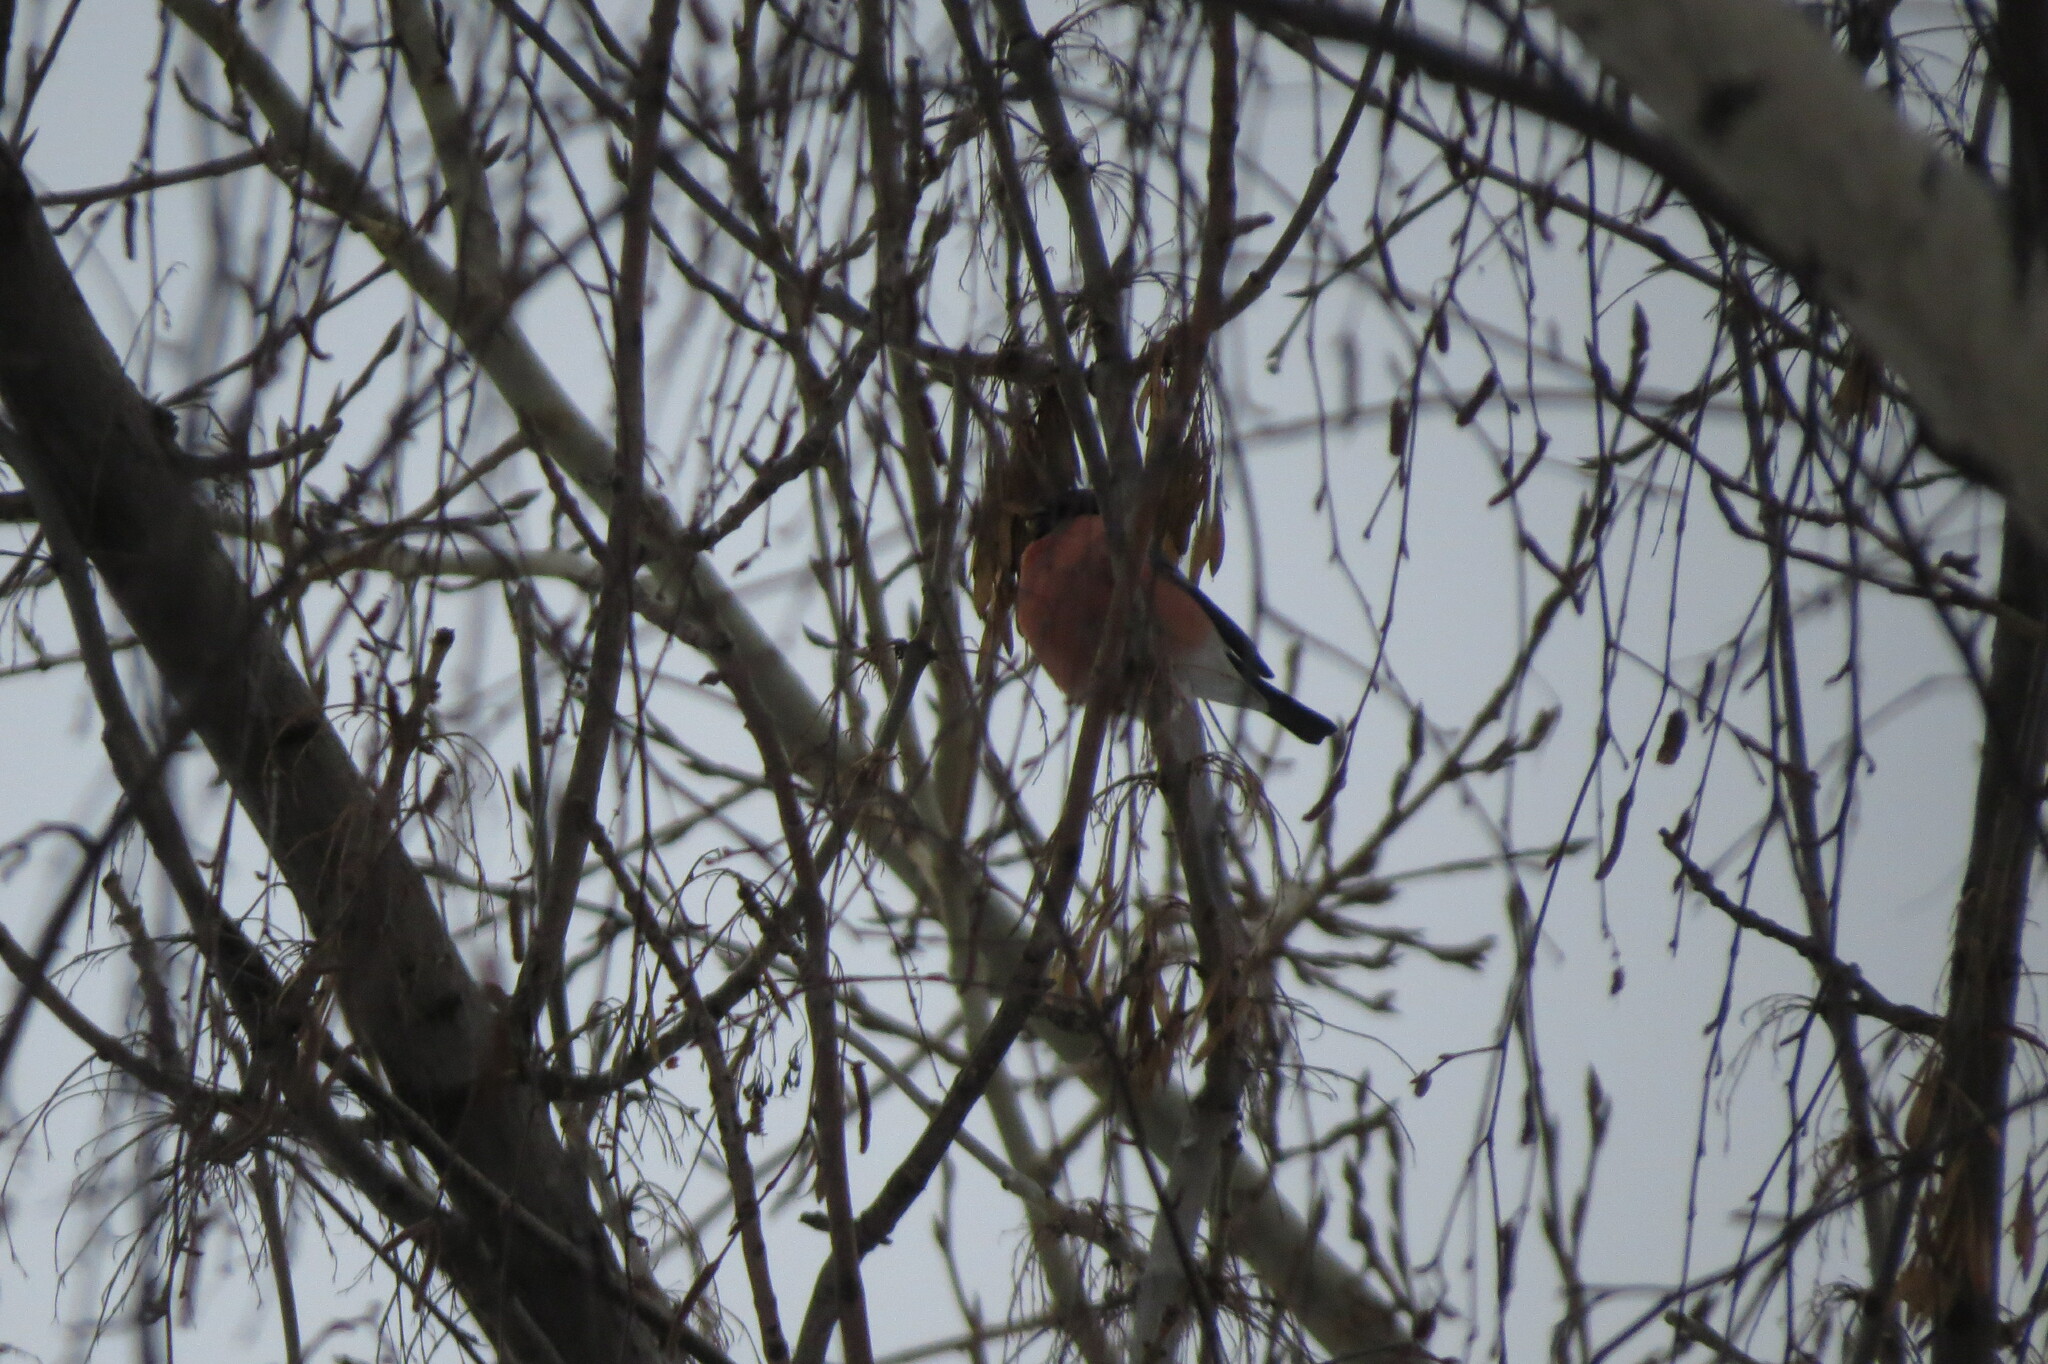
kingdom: Animalia
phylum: Chordata
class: Aves
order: Passeriformes
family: Fringillidae
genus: Pyrrhula
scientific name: Pyrrhula pyrrhula
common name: Eurasian bullfinch
